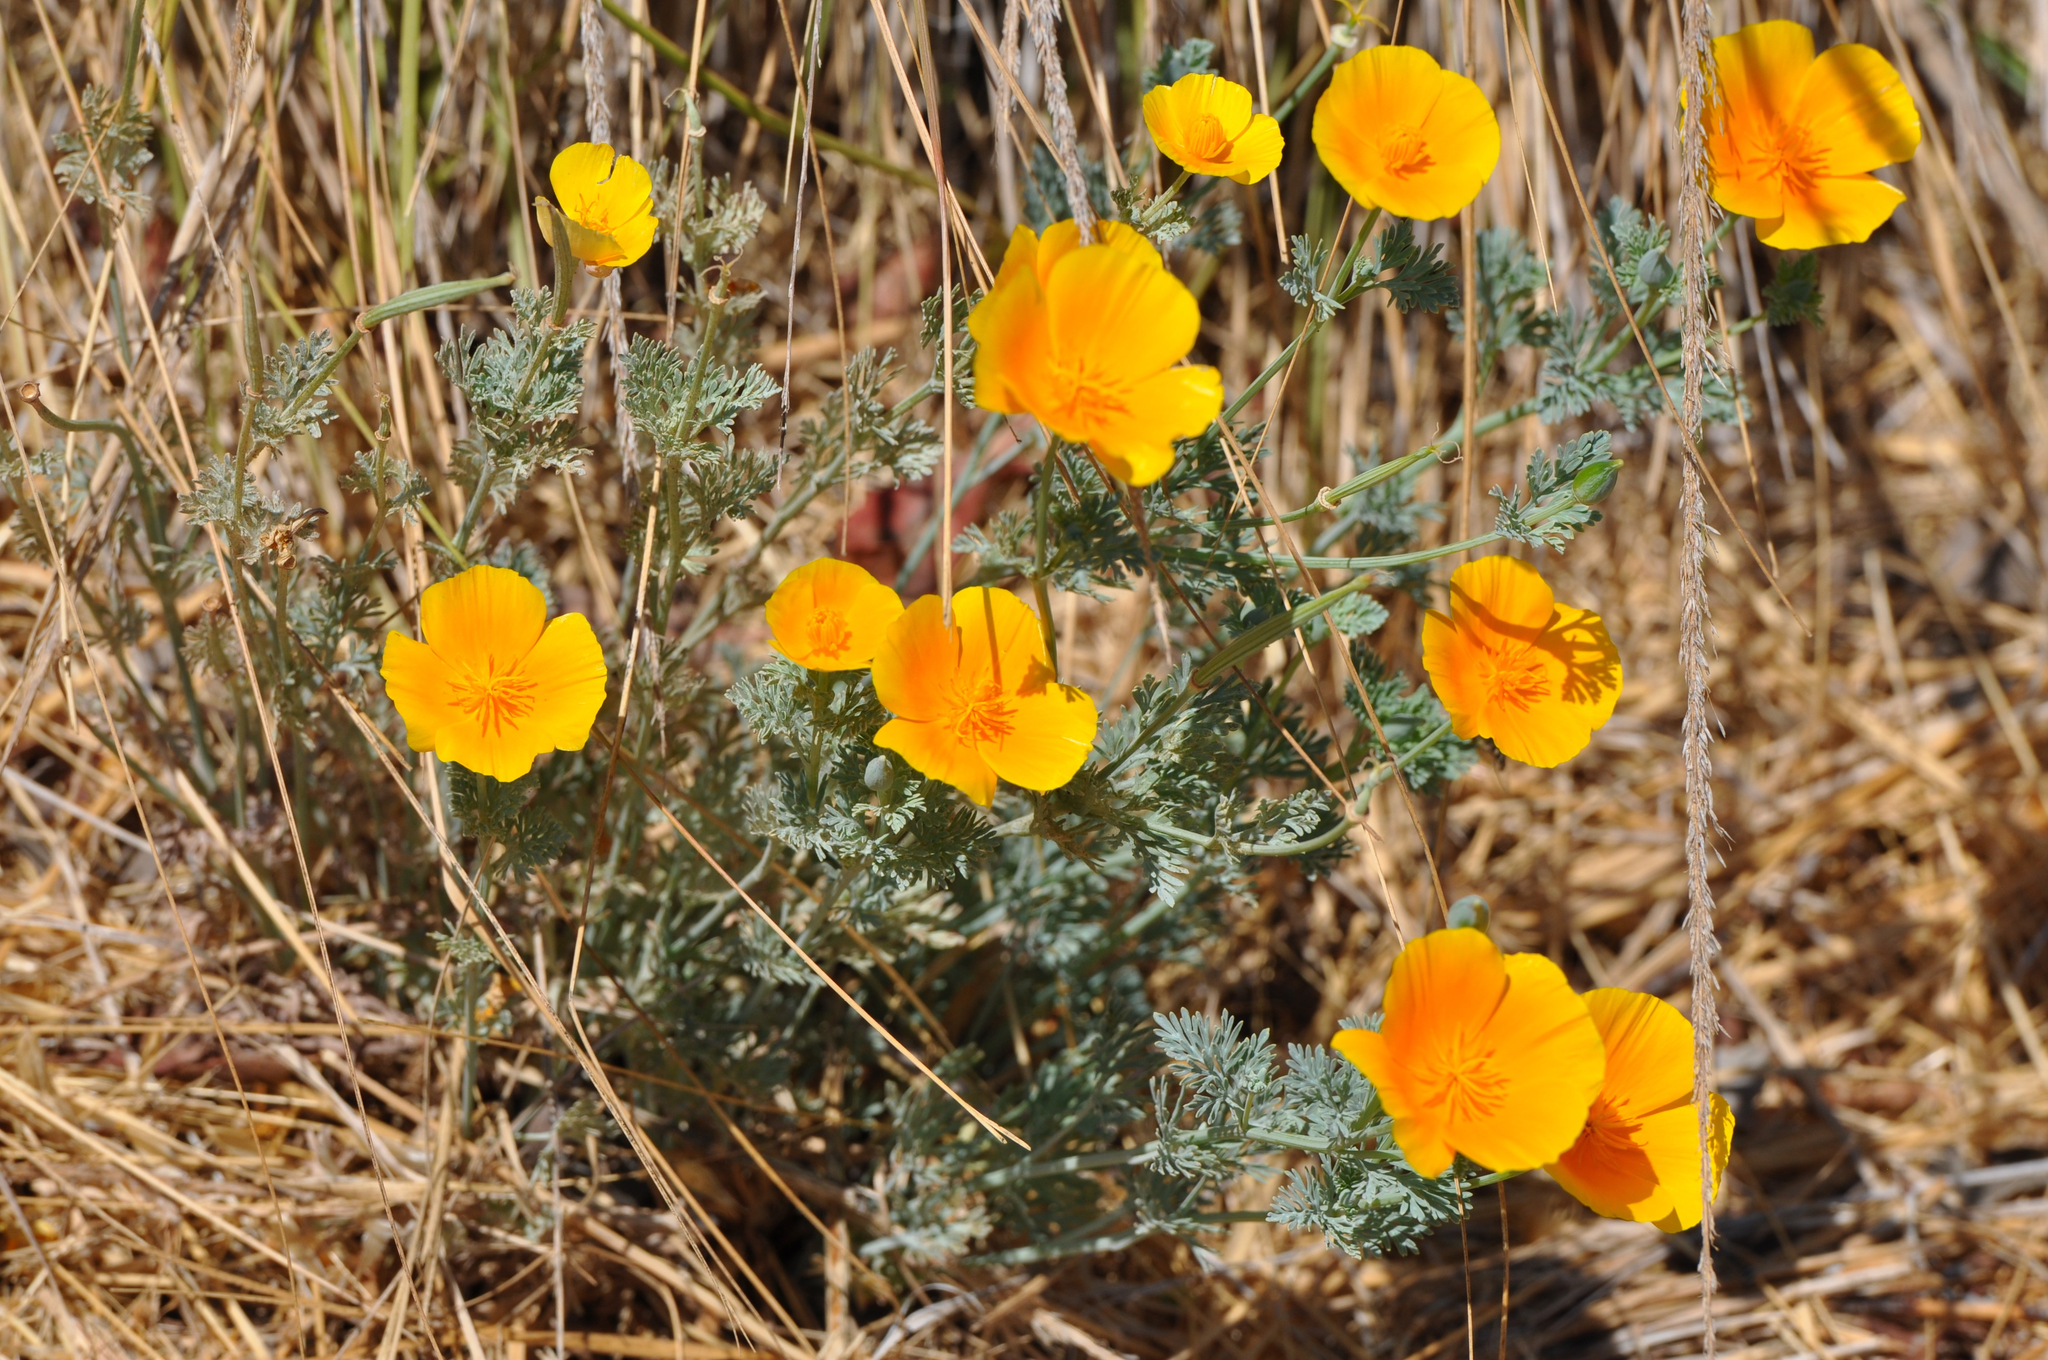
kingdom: Plantae
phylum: Tracheophyta
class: Magnoliopsida
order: Ranunculales
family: Papaveraceae
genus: Eschscholzia
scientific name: Eschscholzia californica
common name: California poppy
